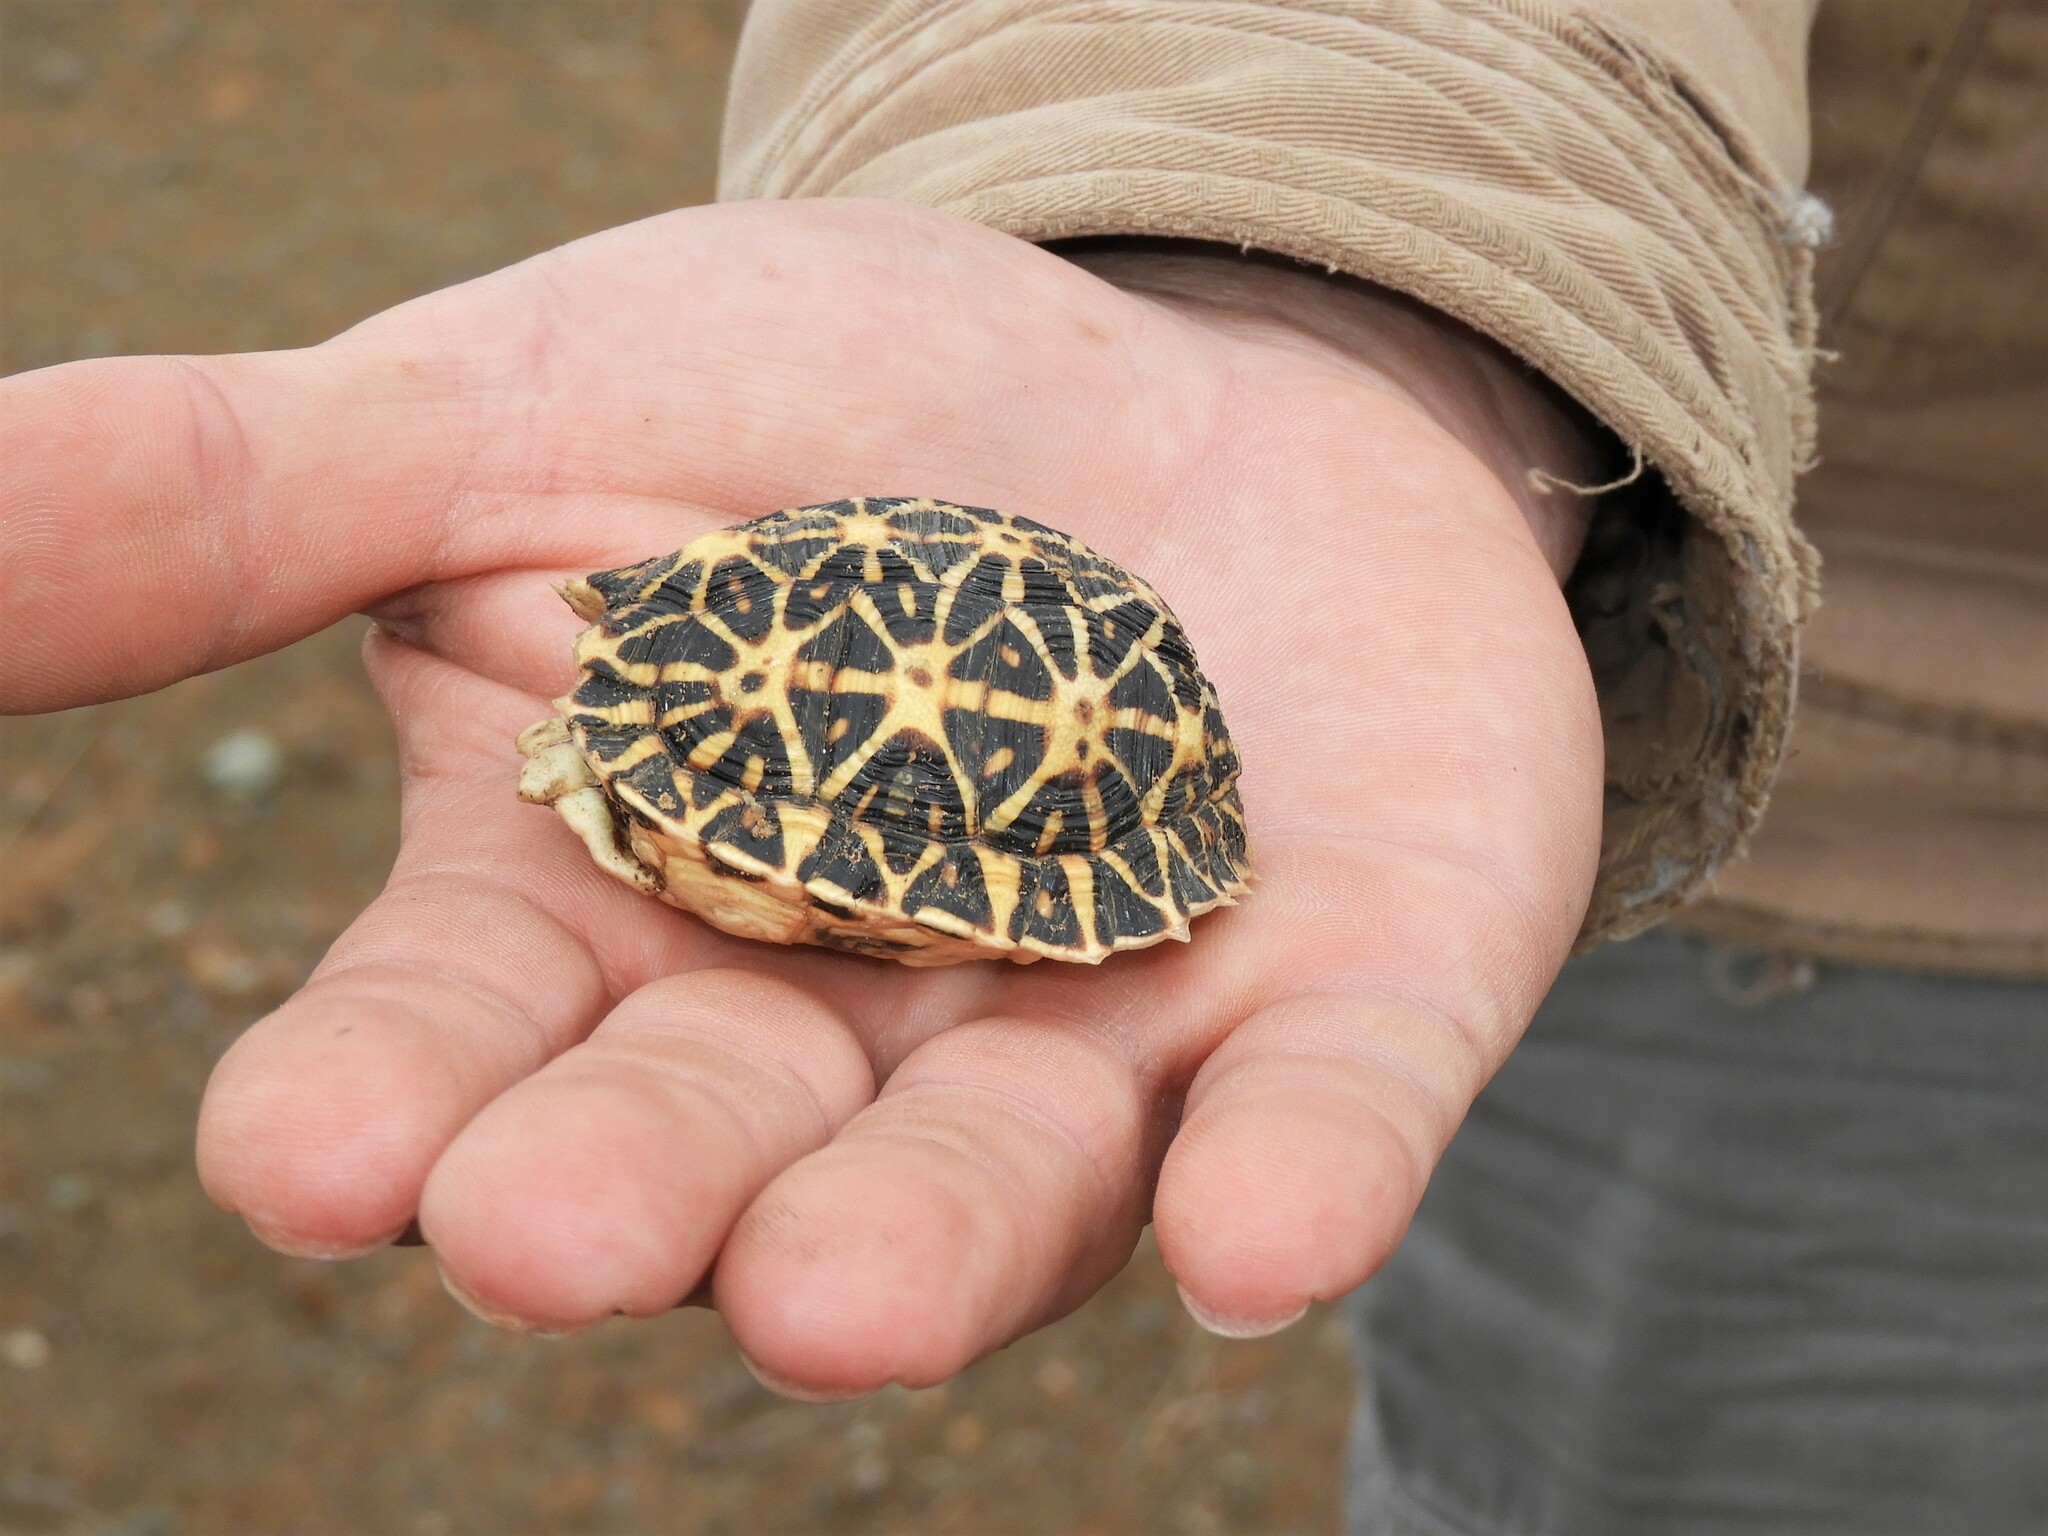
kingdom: Animalia
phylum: Chordata
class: Testudines
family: Testudinidae
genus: Psammobates
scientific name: Psammobates tentorius
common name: Tent tortoise
